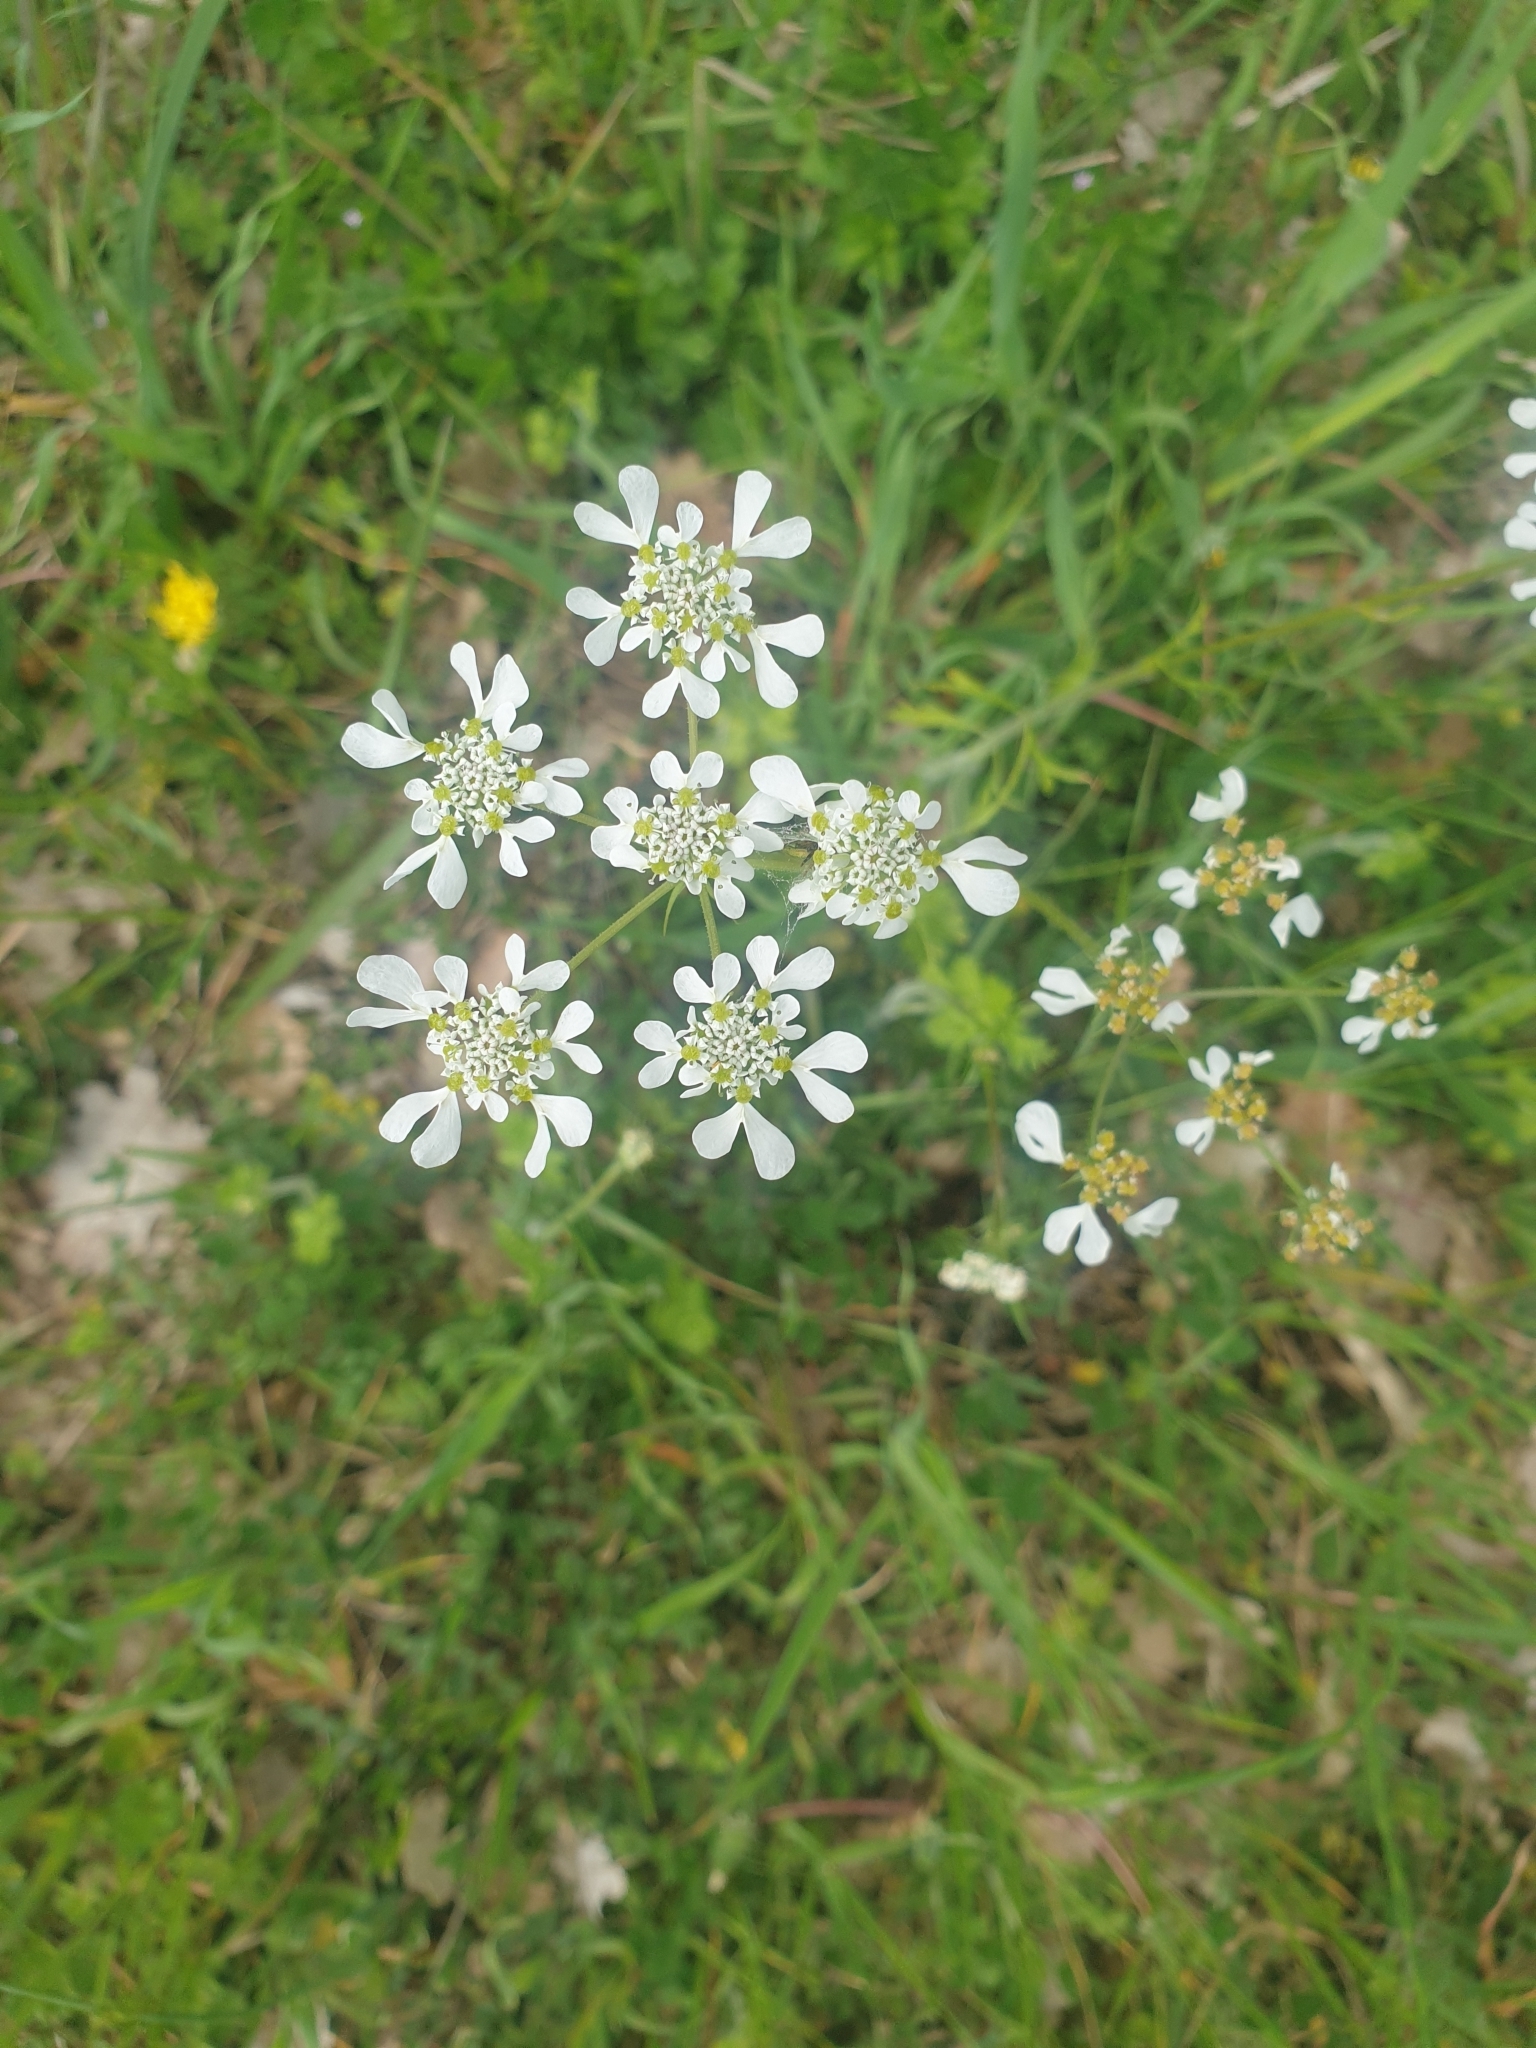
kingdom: Plantae
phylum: Tracheophyta
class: Magnoliopsida
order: Apiales
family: Apiaceae
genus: Tordylium
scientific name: Tordylium apulum
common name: Mediterranean hartwort
